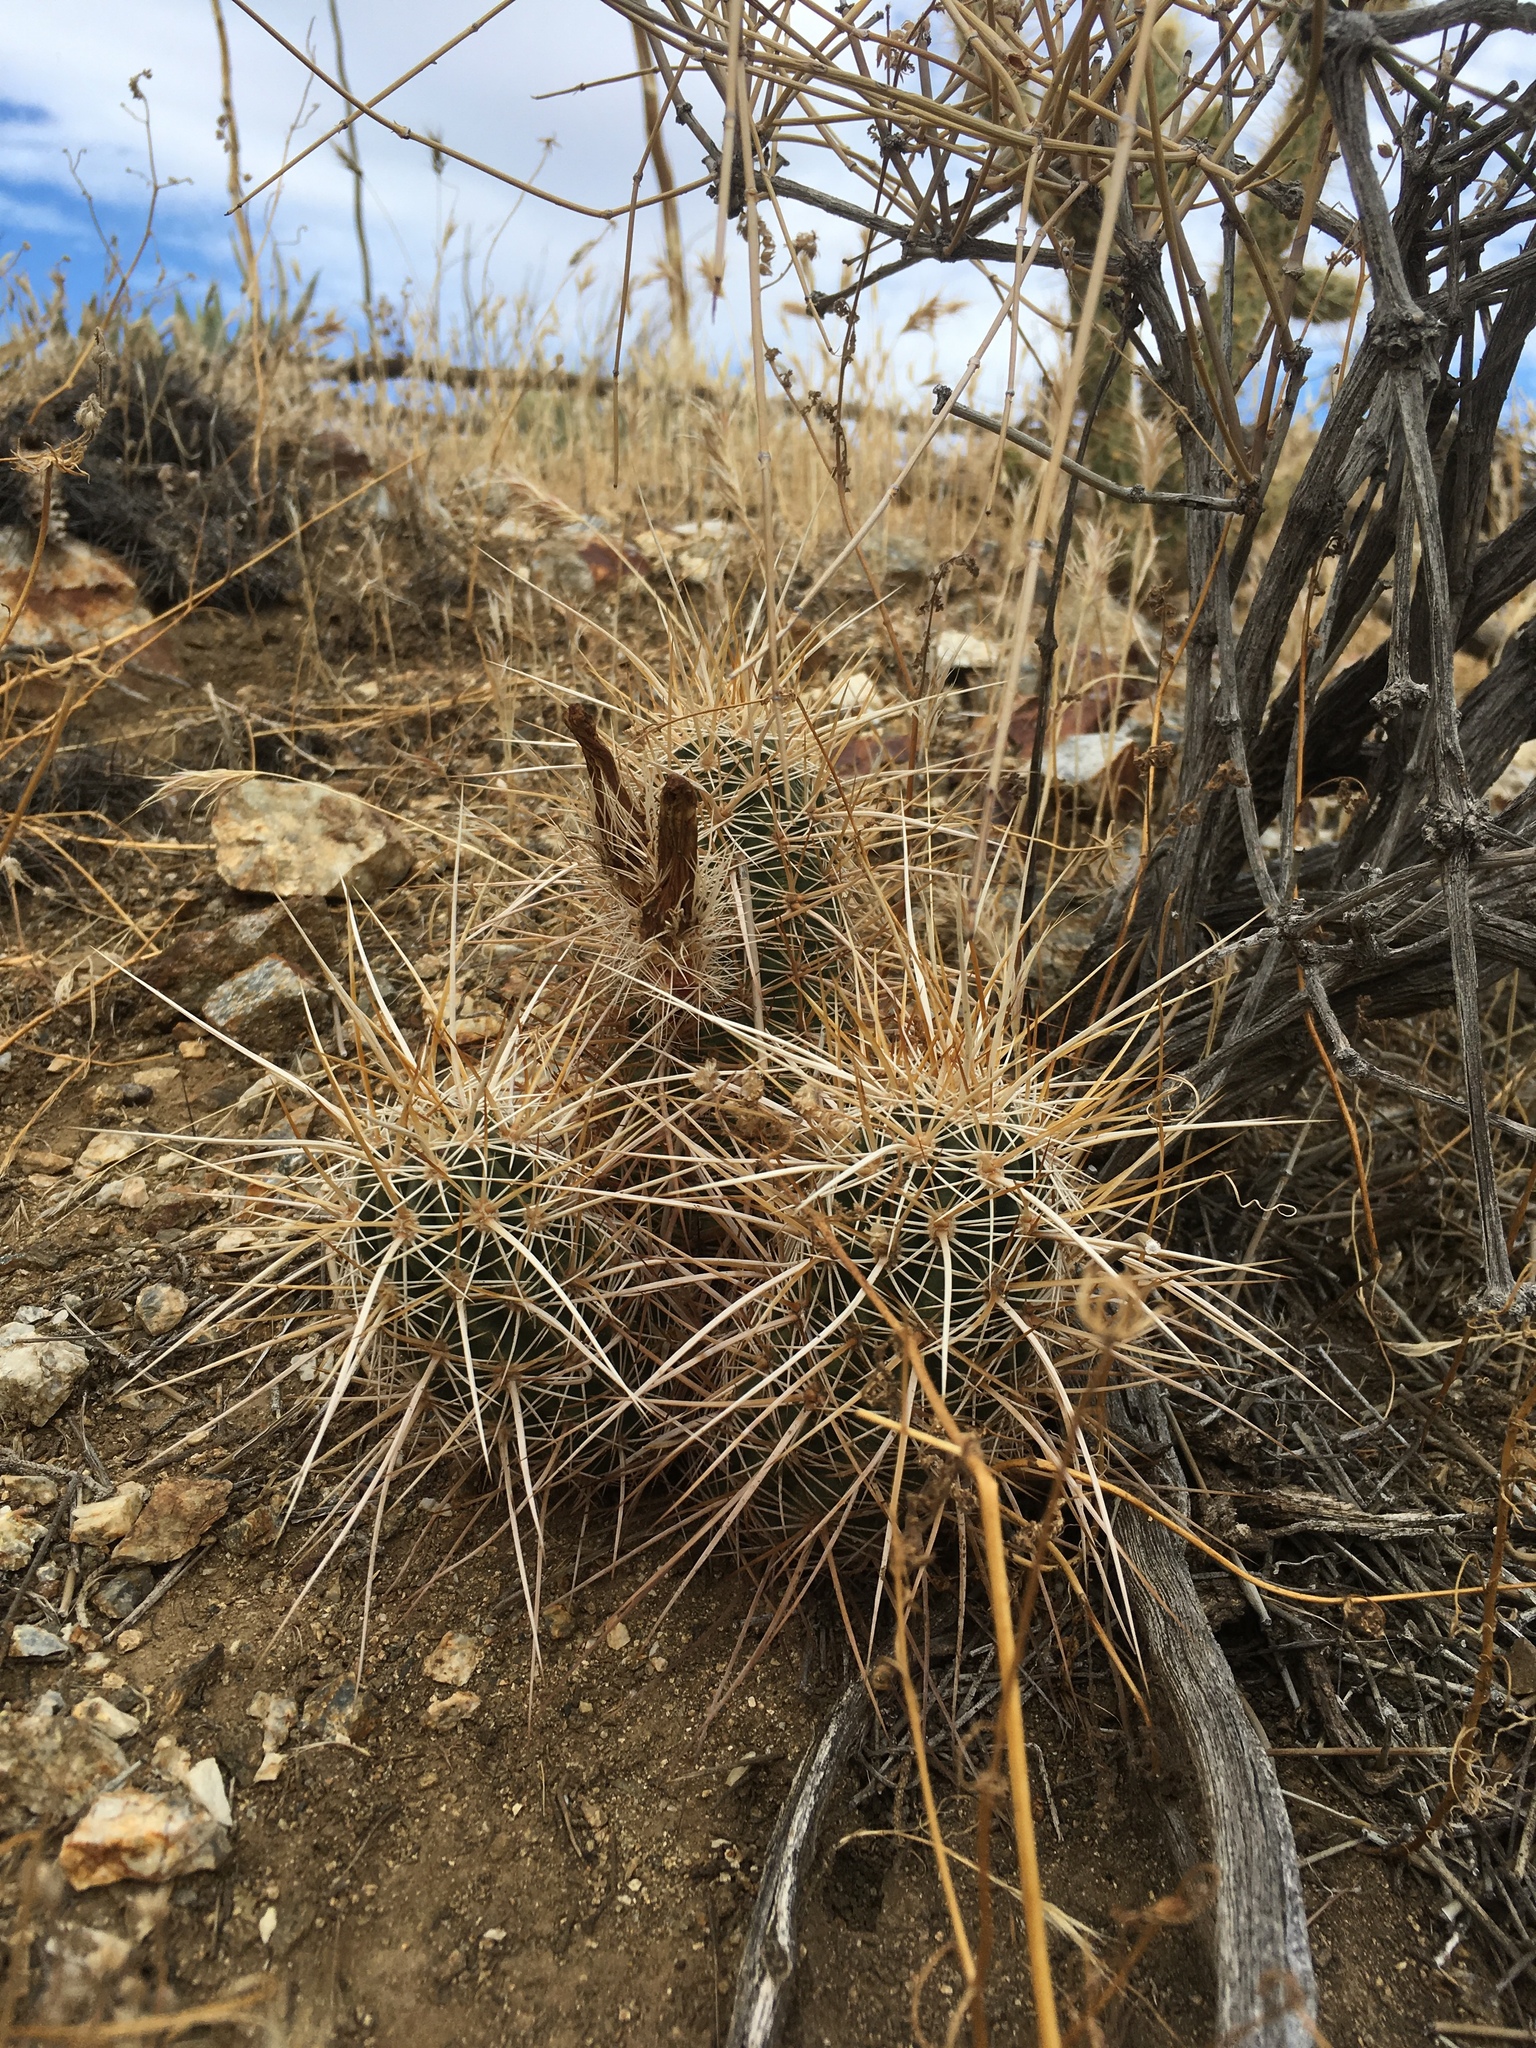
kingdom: Plantae
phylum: Tracheophyta
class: Magnoliopsida
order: Caryophyllales
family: Cactaceae
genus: Echinocereus
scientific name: Echinocereus engelmannii
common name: Engelmann's hedgehog cactus
